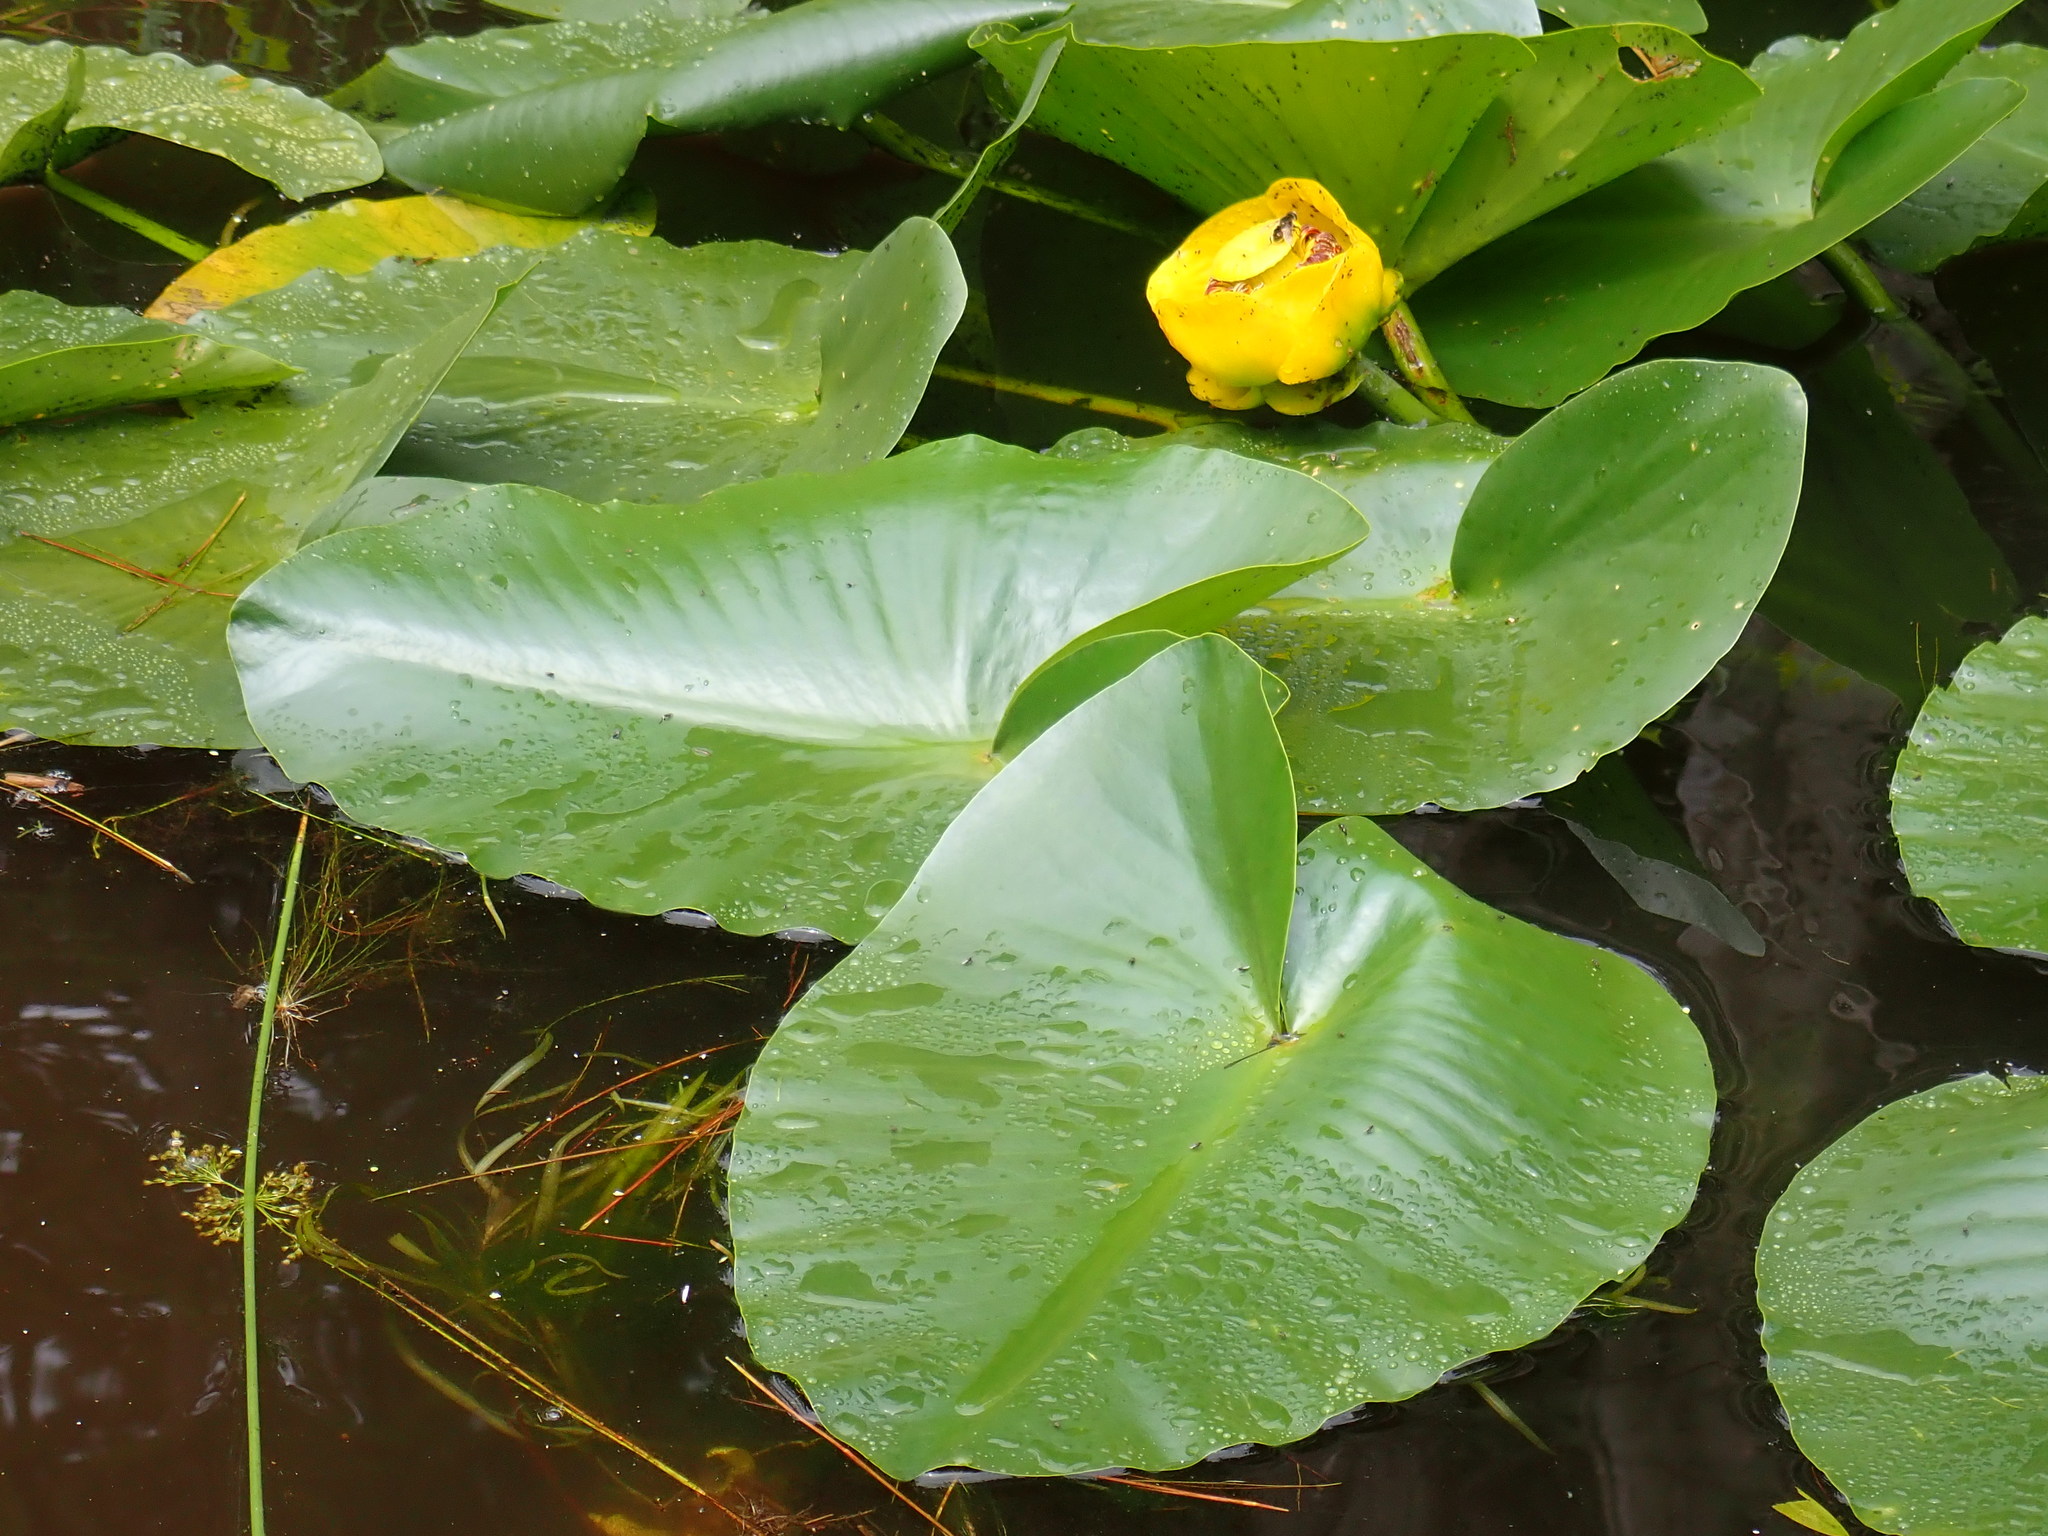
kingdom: Plantae
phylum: Tracheophyta
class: Magnoliopsida
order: Nymphaeales
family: Nymphaeaceae
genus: Nuphar
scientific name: Nuphar polysepala
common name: Rocky mountain cow-lily
